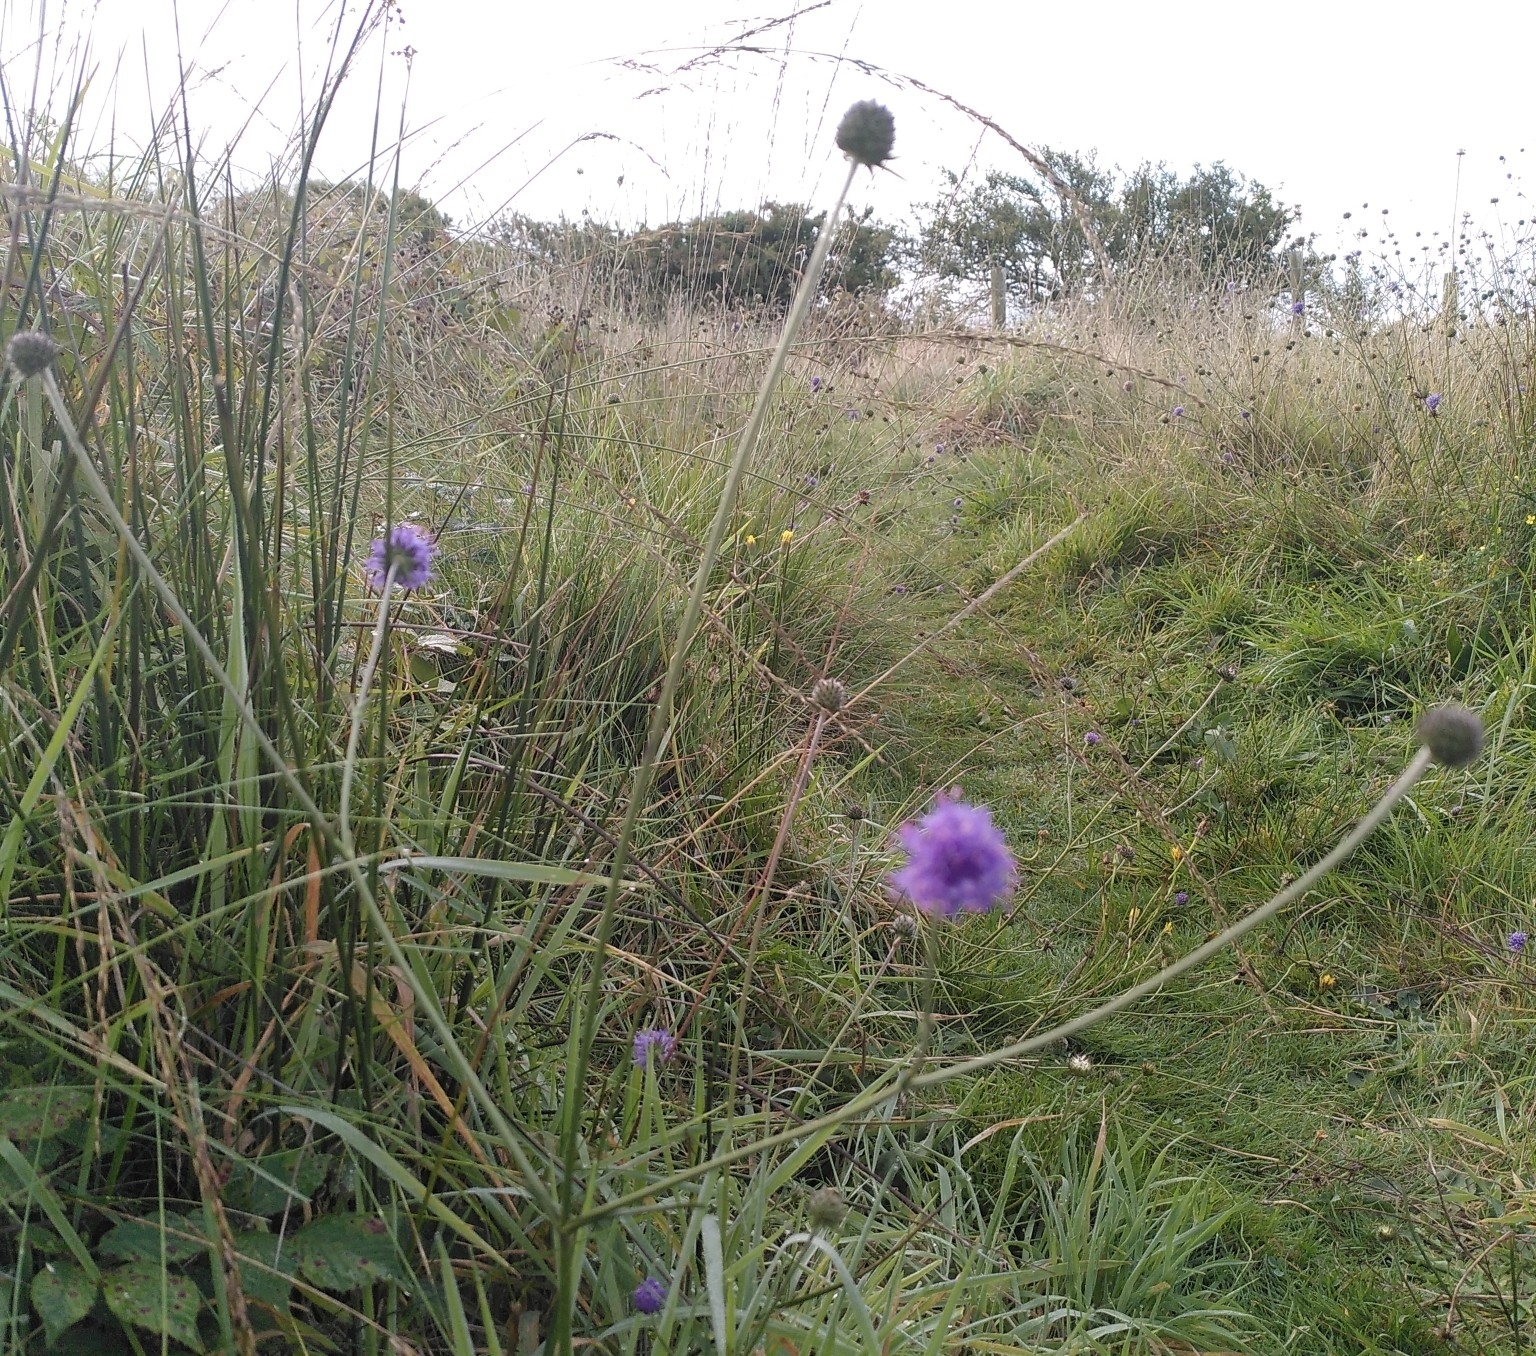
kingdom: Plantae
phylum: Tracheophyta
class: Magnoliopsida
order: Dipsacales
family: Caprifoliaceae
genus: Succisa
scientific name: Succisa pratensis
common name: Devil's-bit
